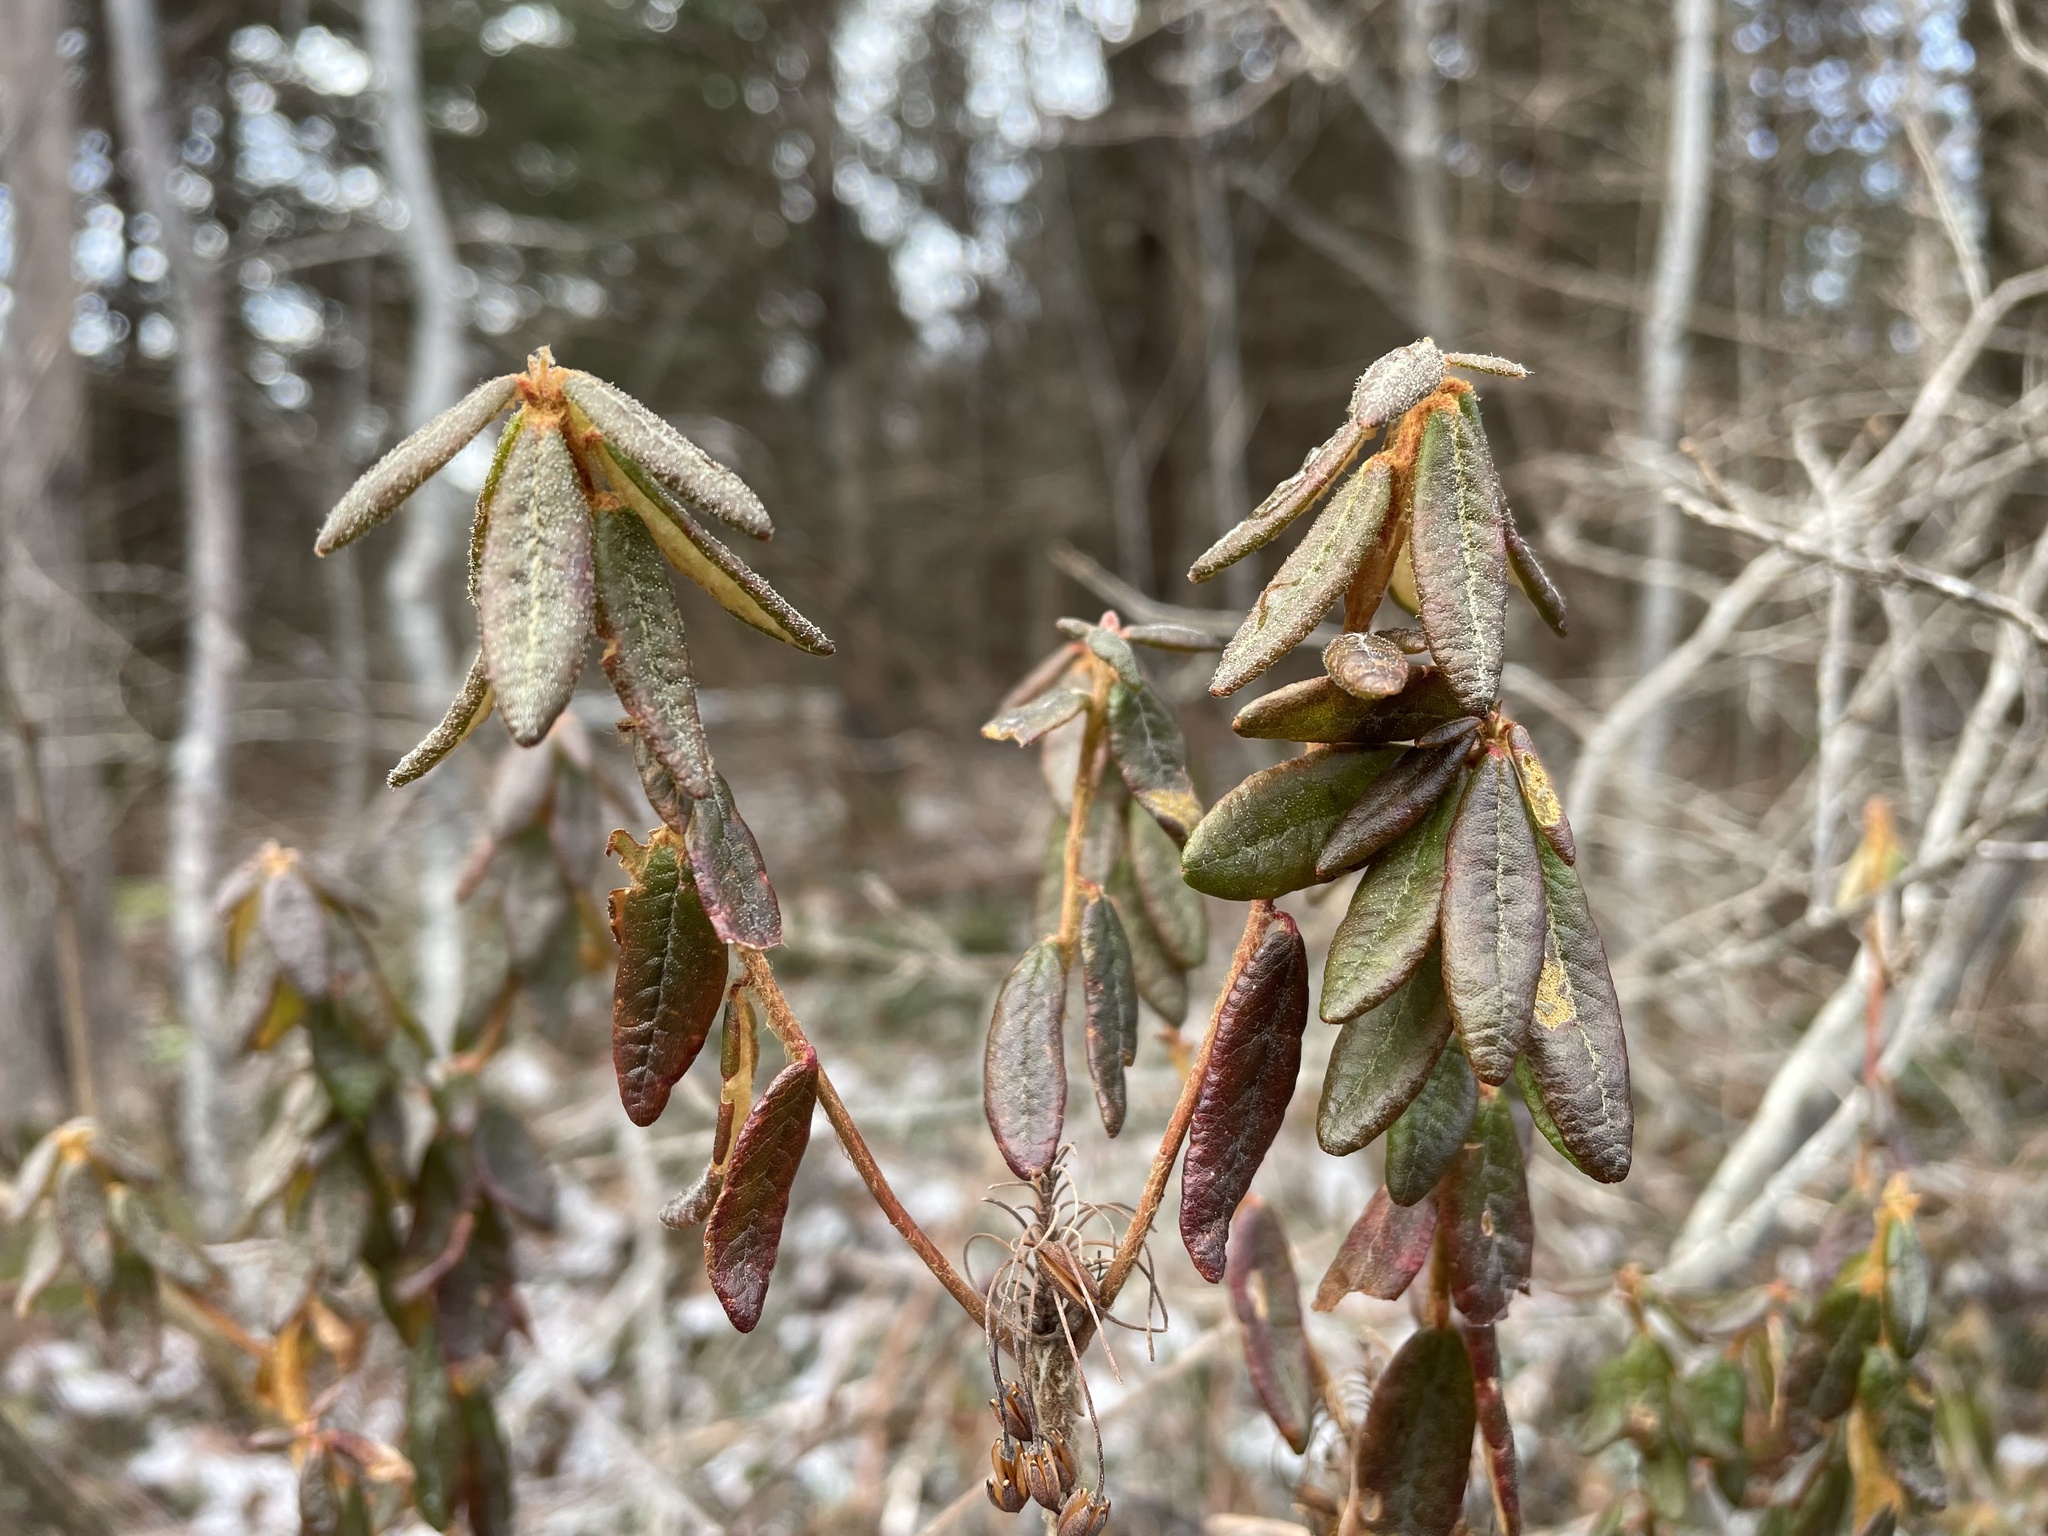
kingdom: Plantae
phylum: Tracheophyta
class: Magnoliopsida
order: Ericales
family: Ericaceae
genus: Rhododendron
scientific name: Rhododendron groenlandicum
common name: Bog labrador tea
